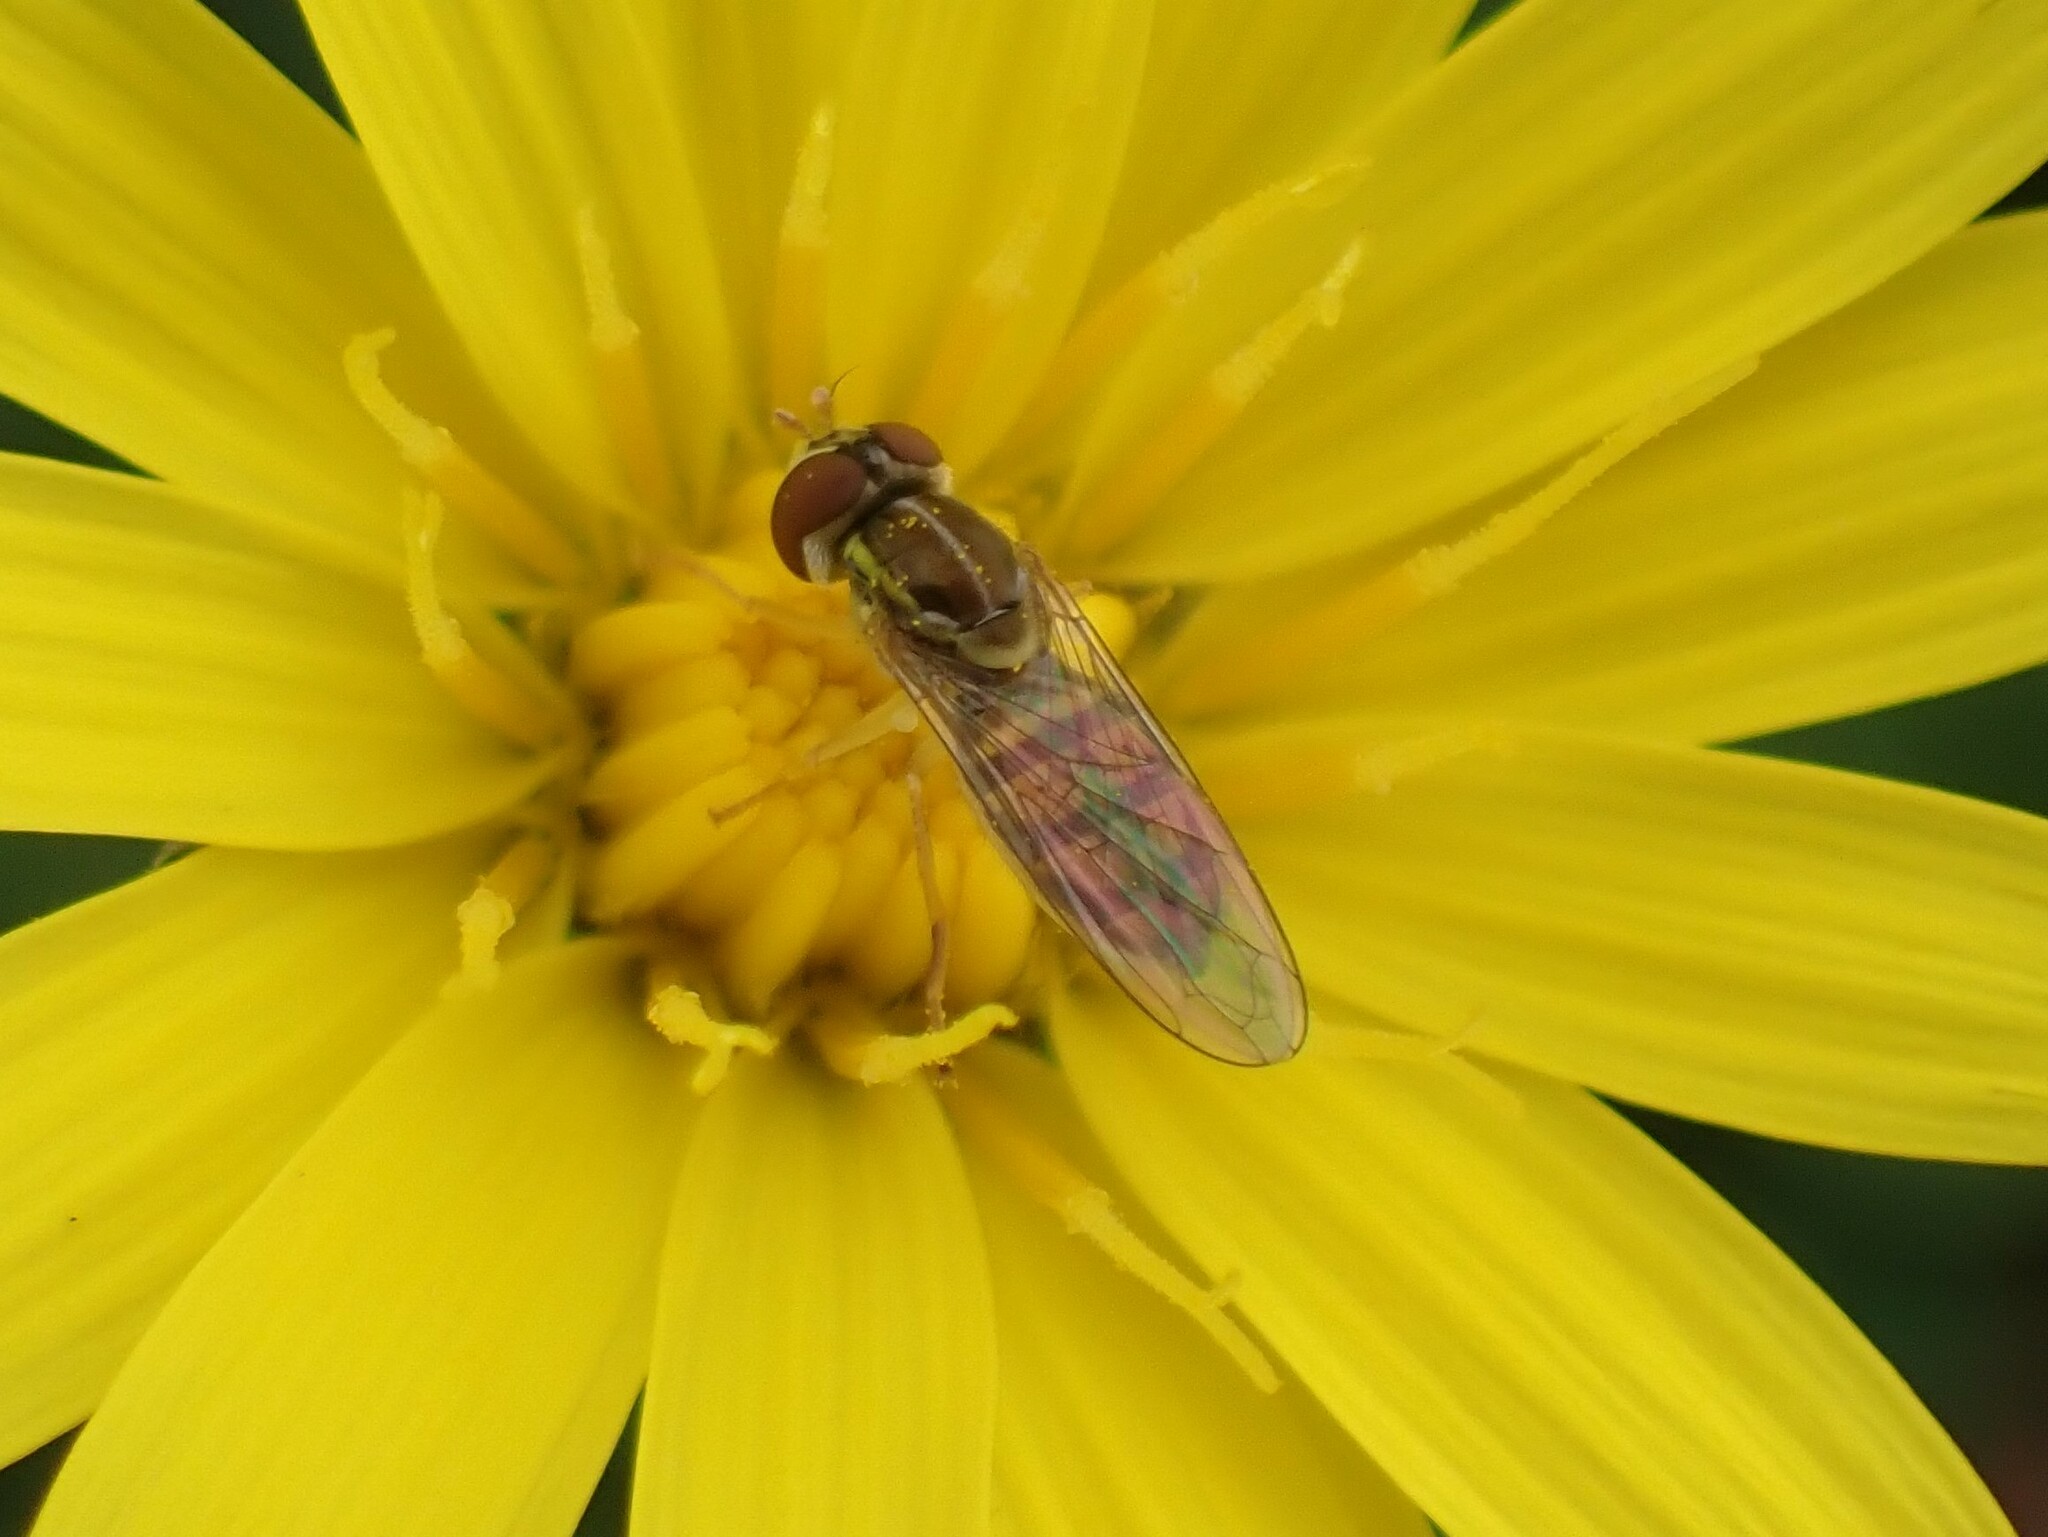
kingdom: Animalia
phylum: Arthropoda
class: Insecta
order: Diptera
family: Syrphidae
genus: Toxomerus
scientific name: Toxomerus marginatus
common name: Syrphid fly
